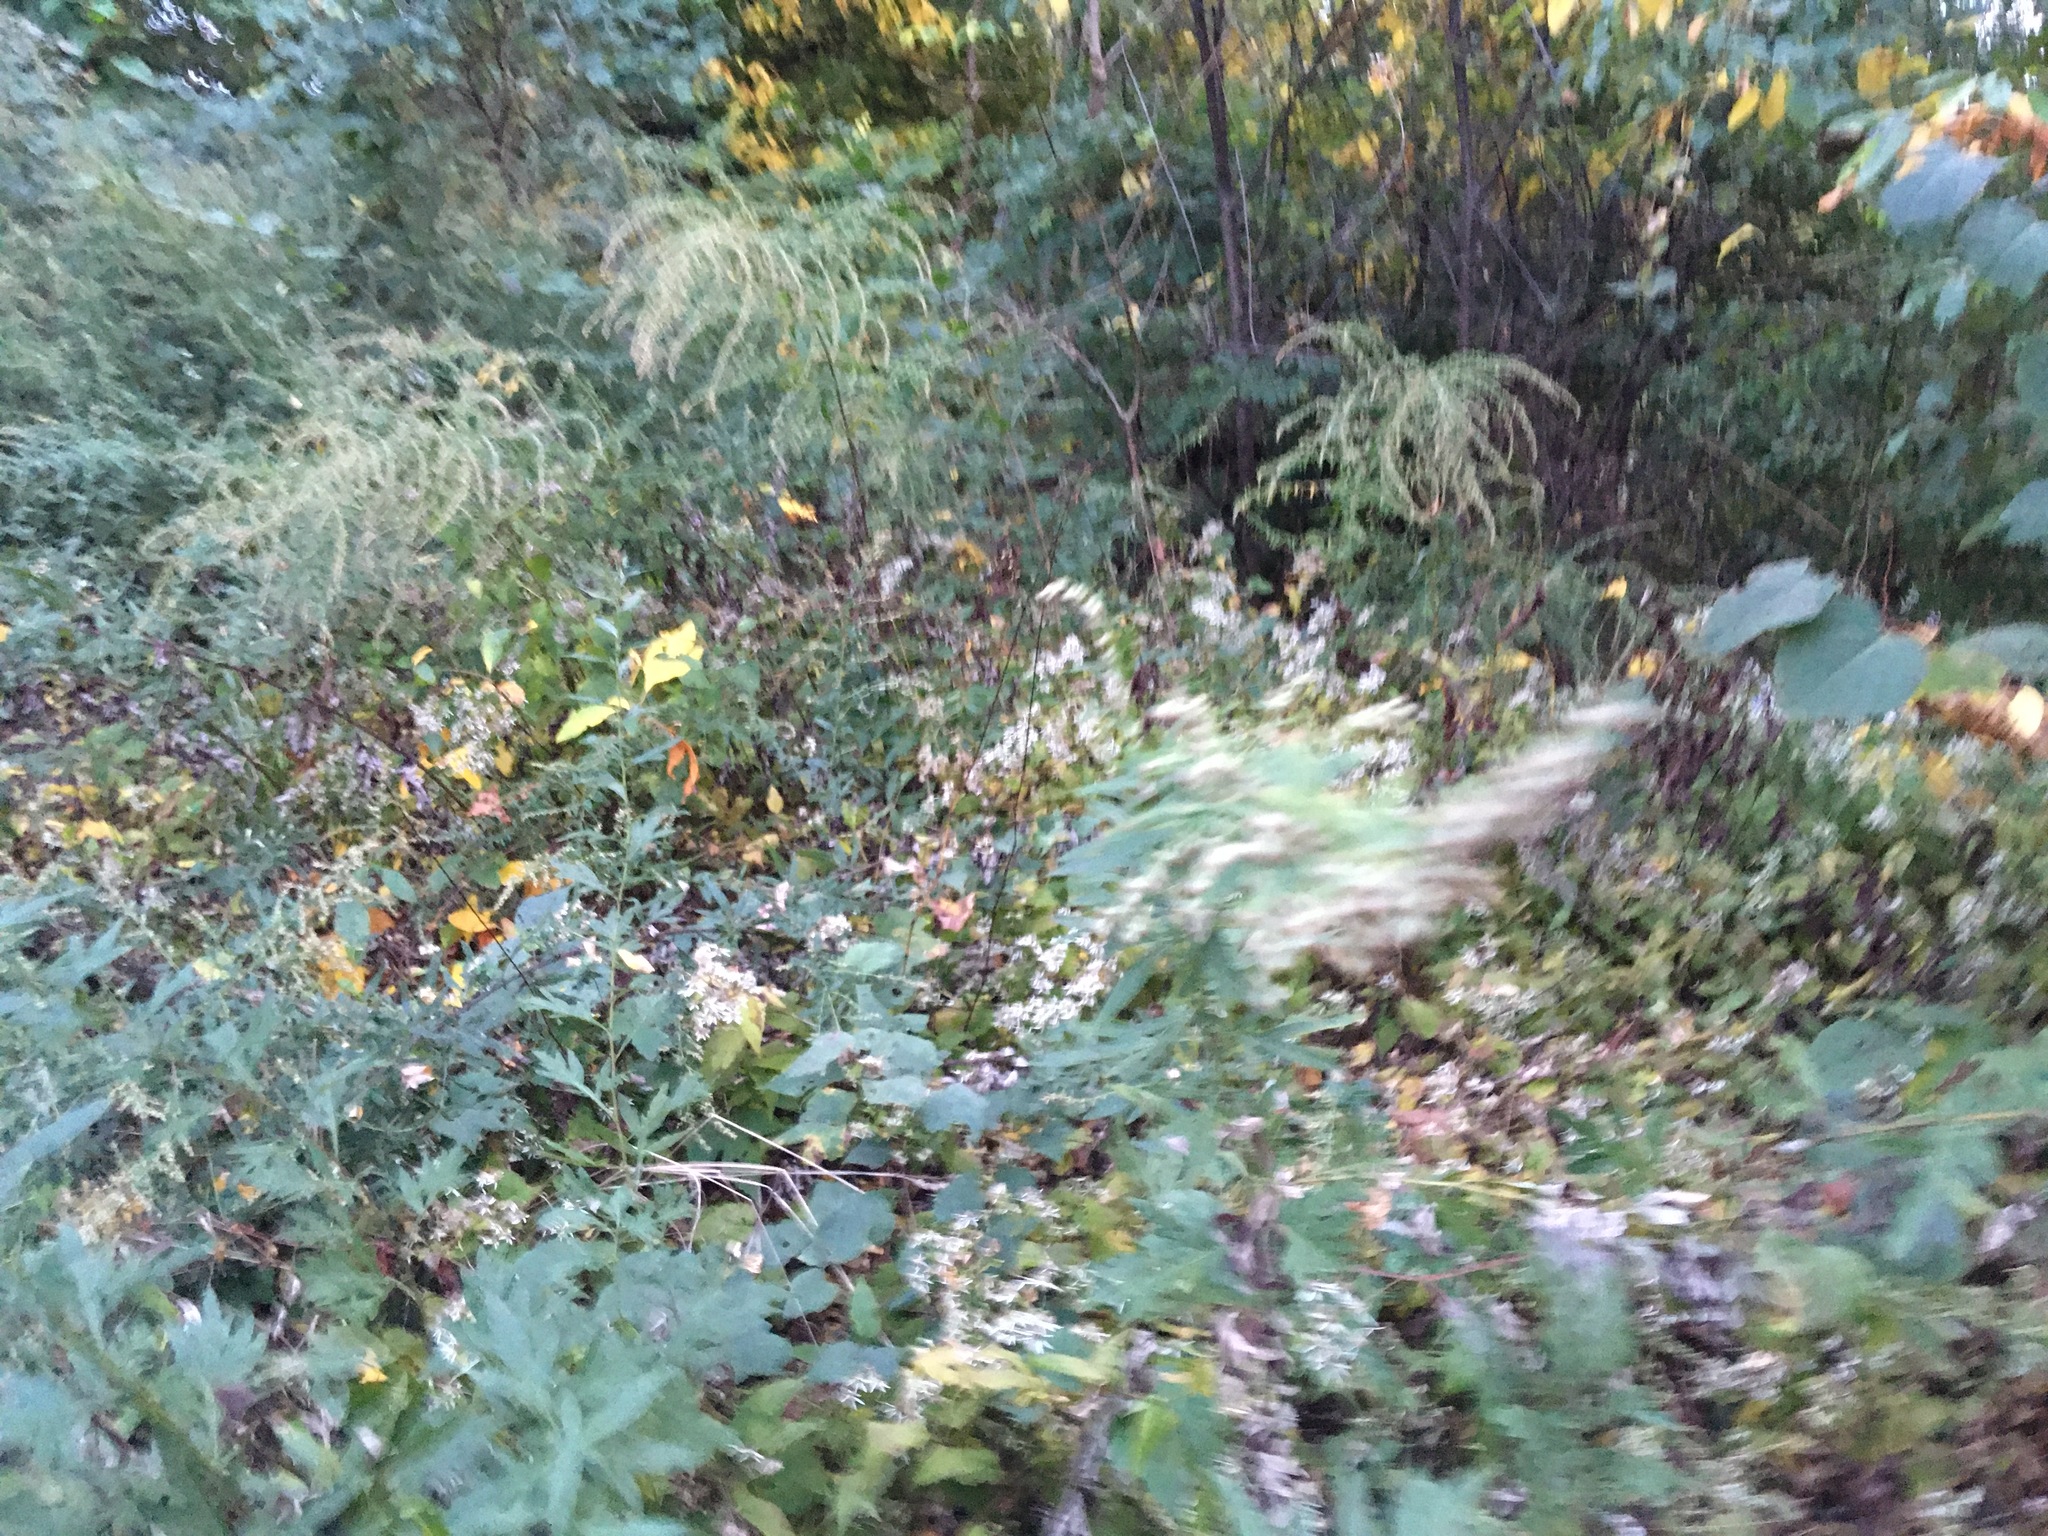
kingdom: Plantae
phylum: Tracheophyta
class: Magnoliopsida
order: Asterales
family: Asteraceae
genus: Artemisia
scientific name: Artemisia vulgaris
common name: Mugwort
